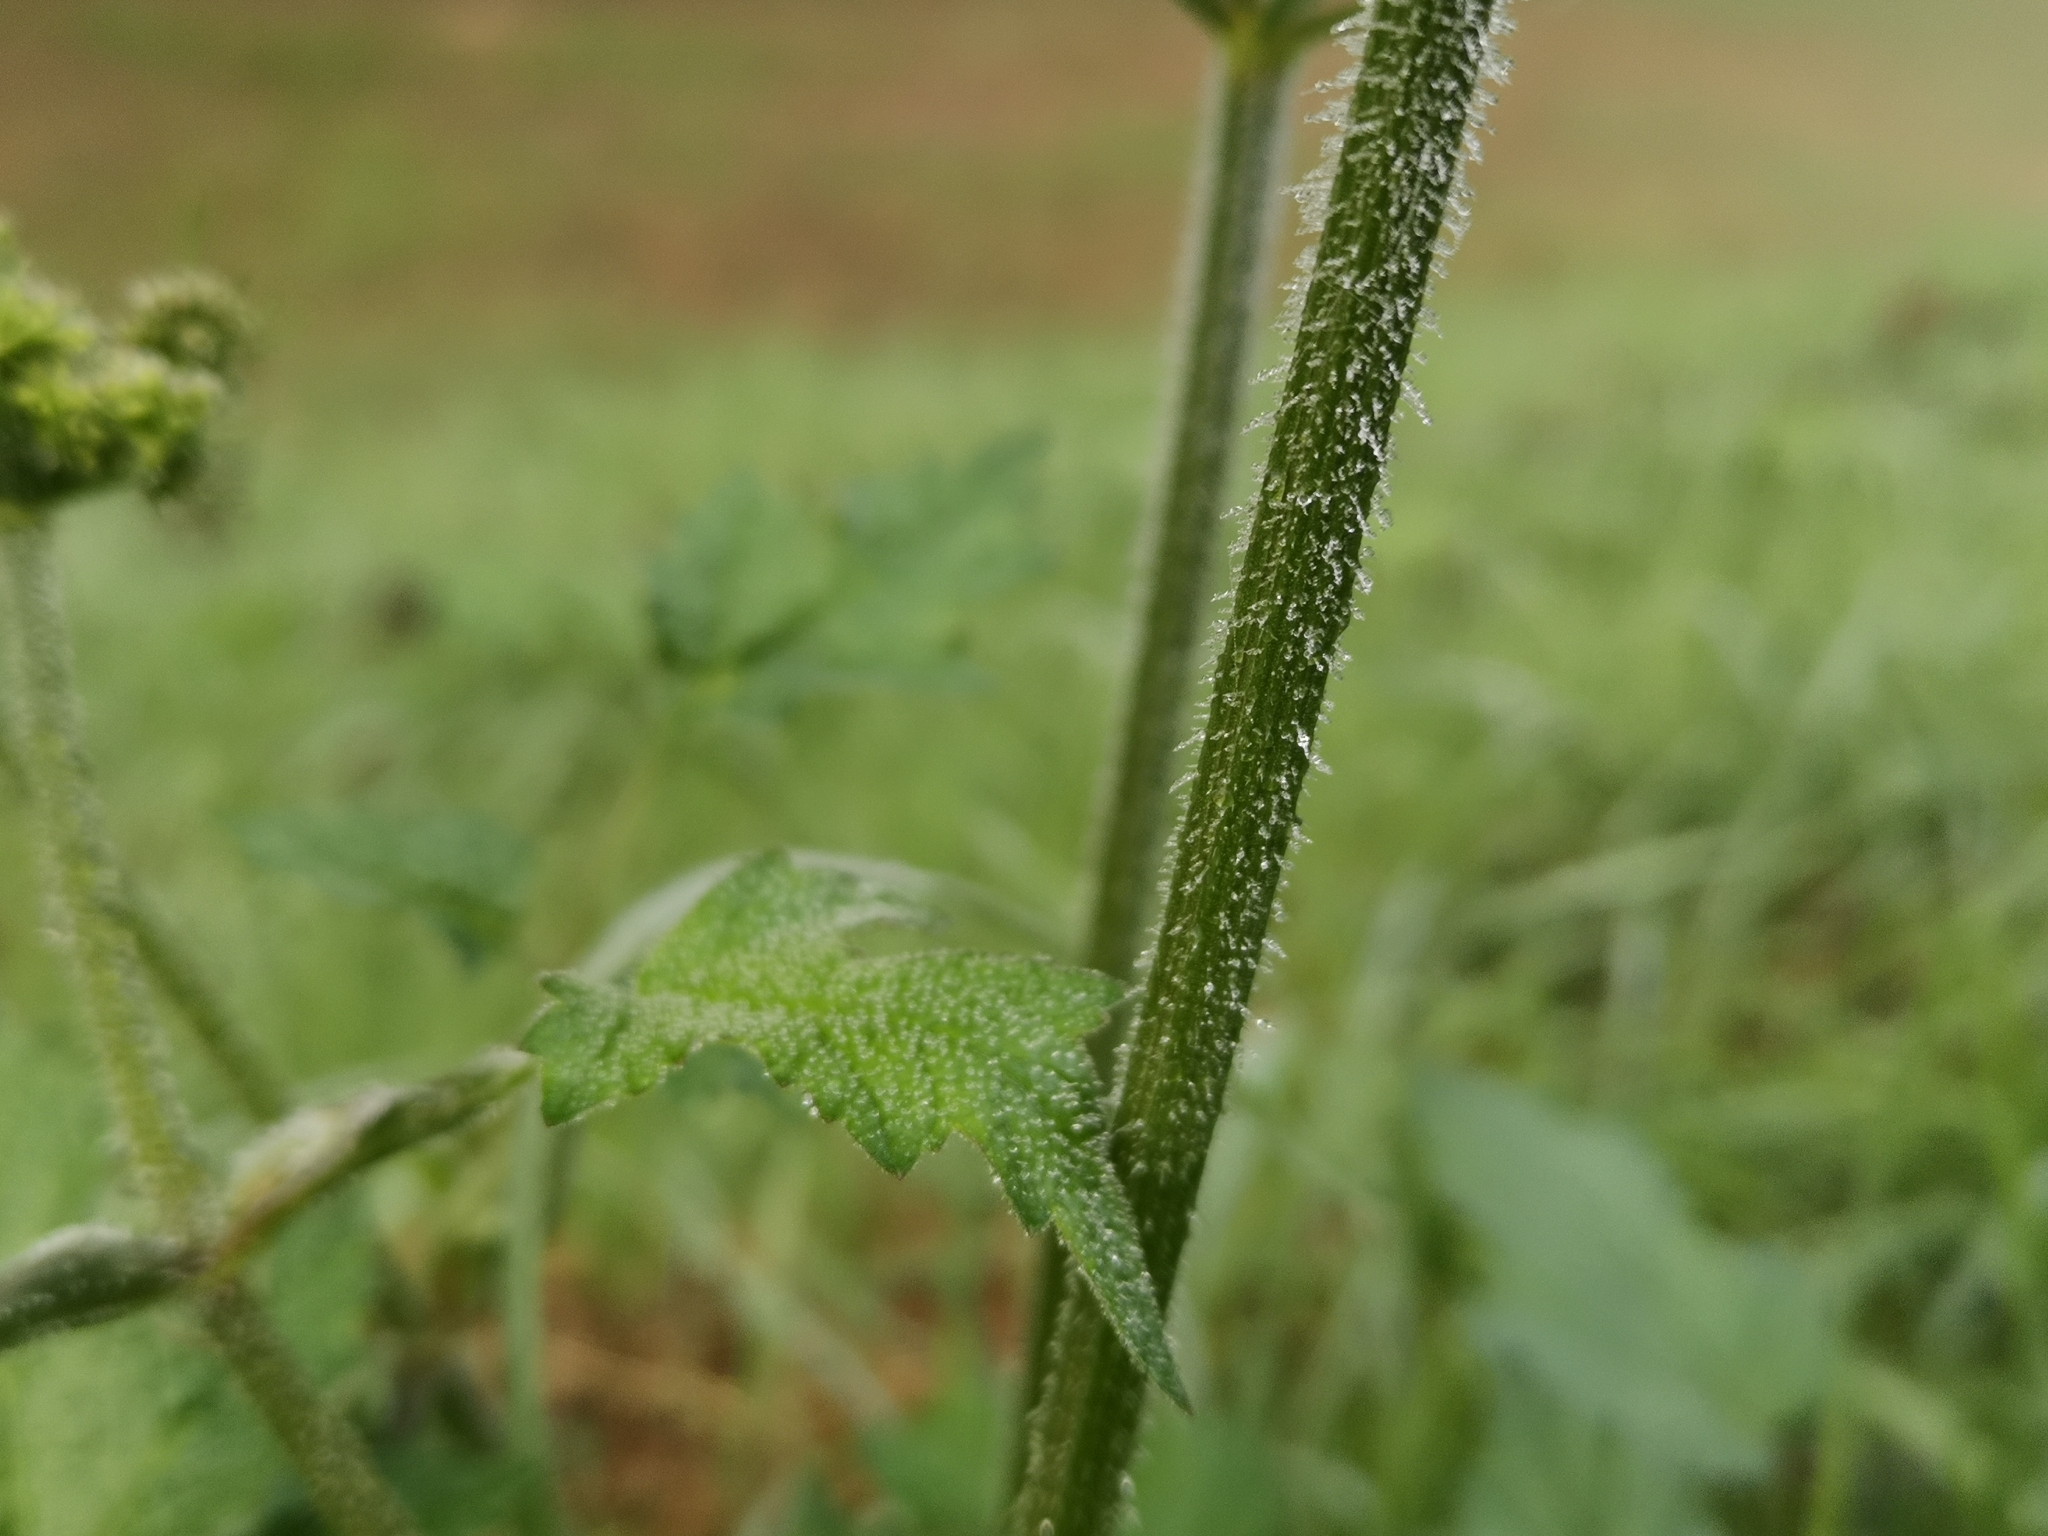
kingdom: Plantae
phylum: Tracheophyta
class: Magnoliopsida
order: Apiales
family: Apiaceae
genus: Heracleum
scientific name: Heracleum sphondylium
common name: Hogweed
